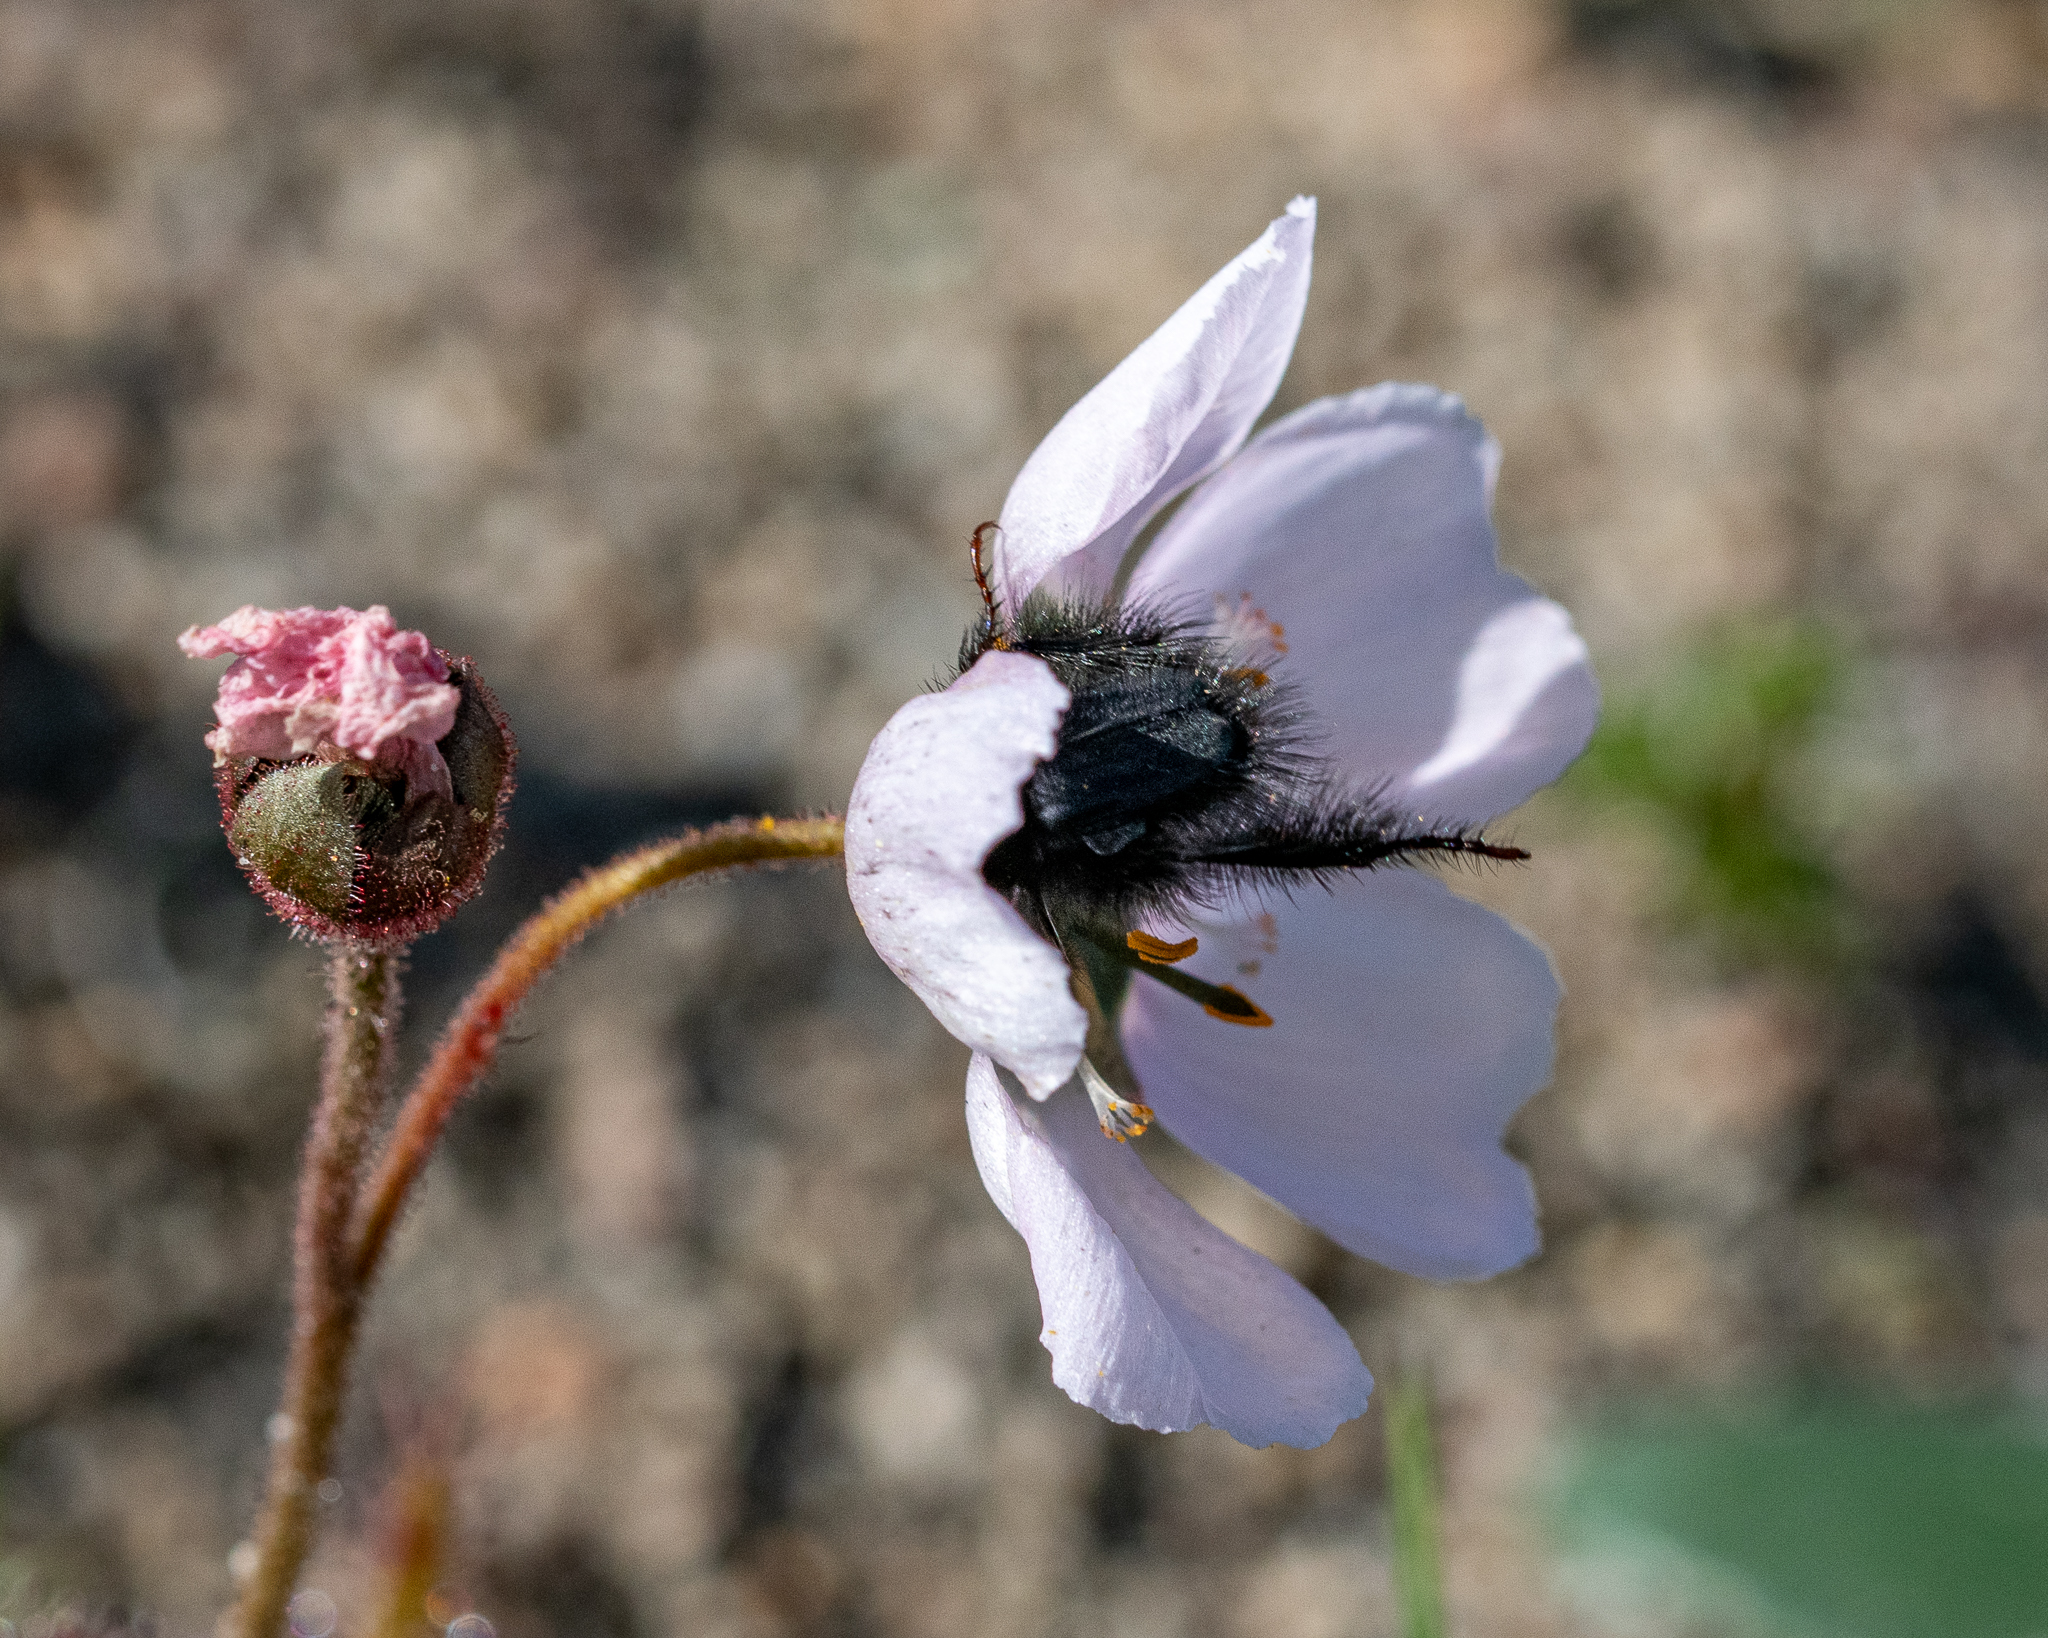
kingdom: Plantae
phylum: Tracheophyta
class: Magnoliopsida
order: Caryophyllales
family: Droseraceae
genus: Drosera
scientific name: Drosera cistiflora
